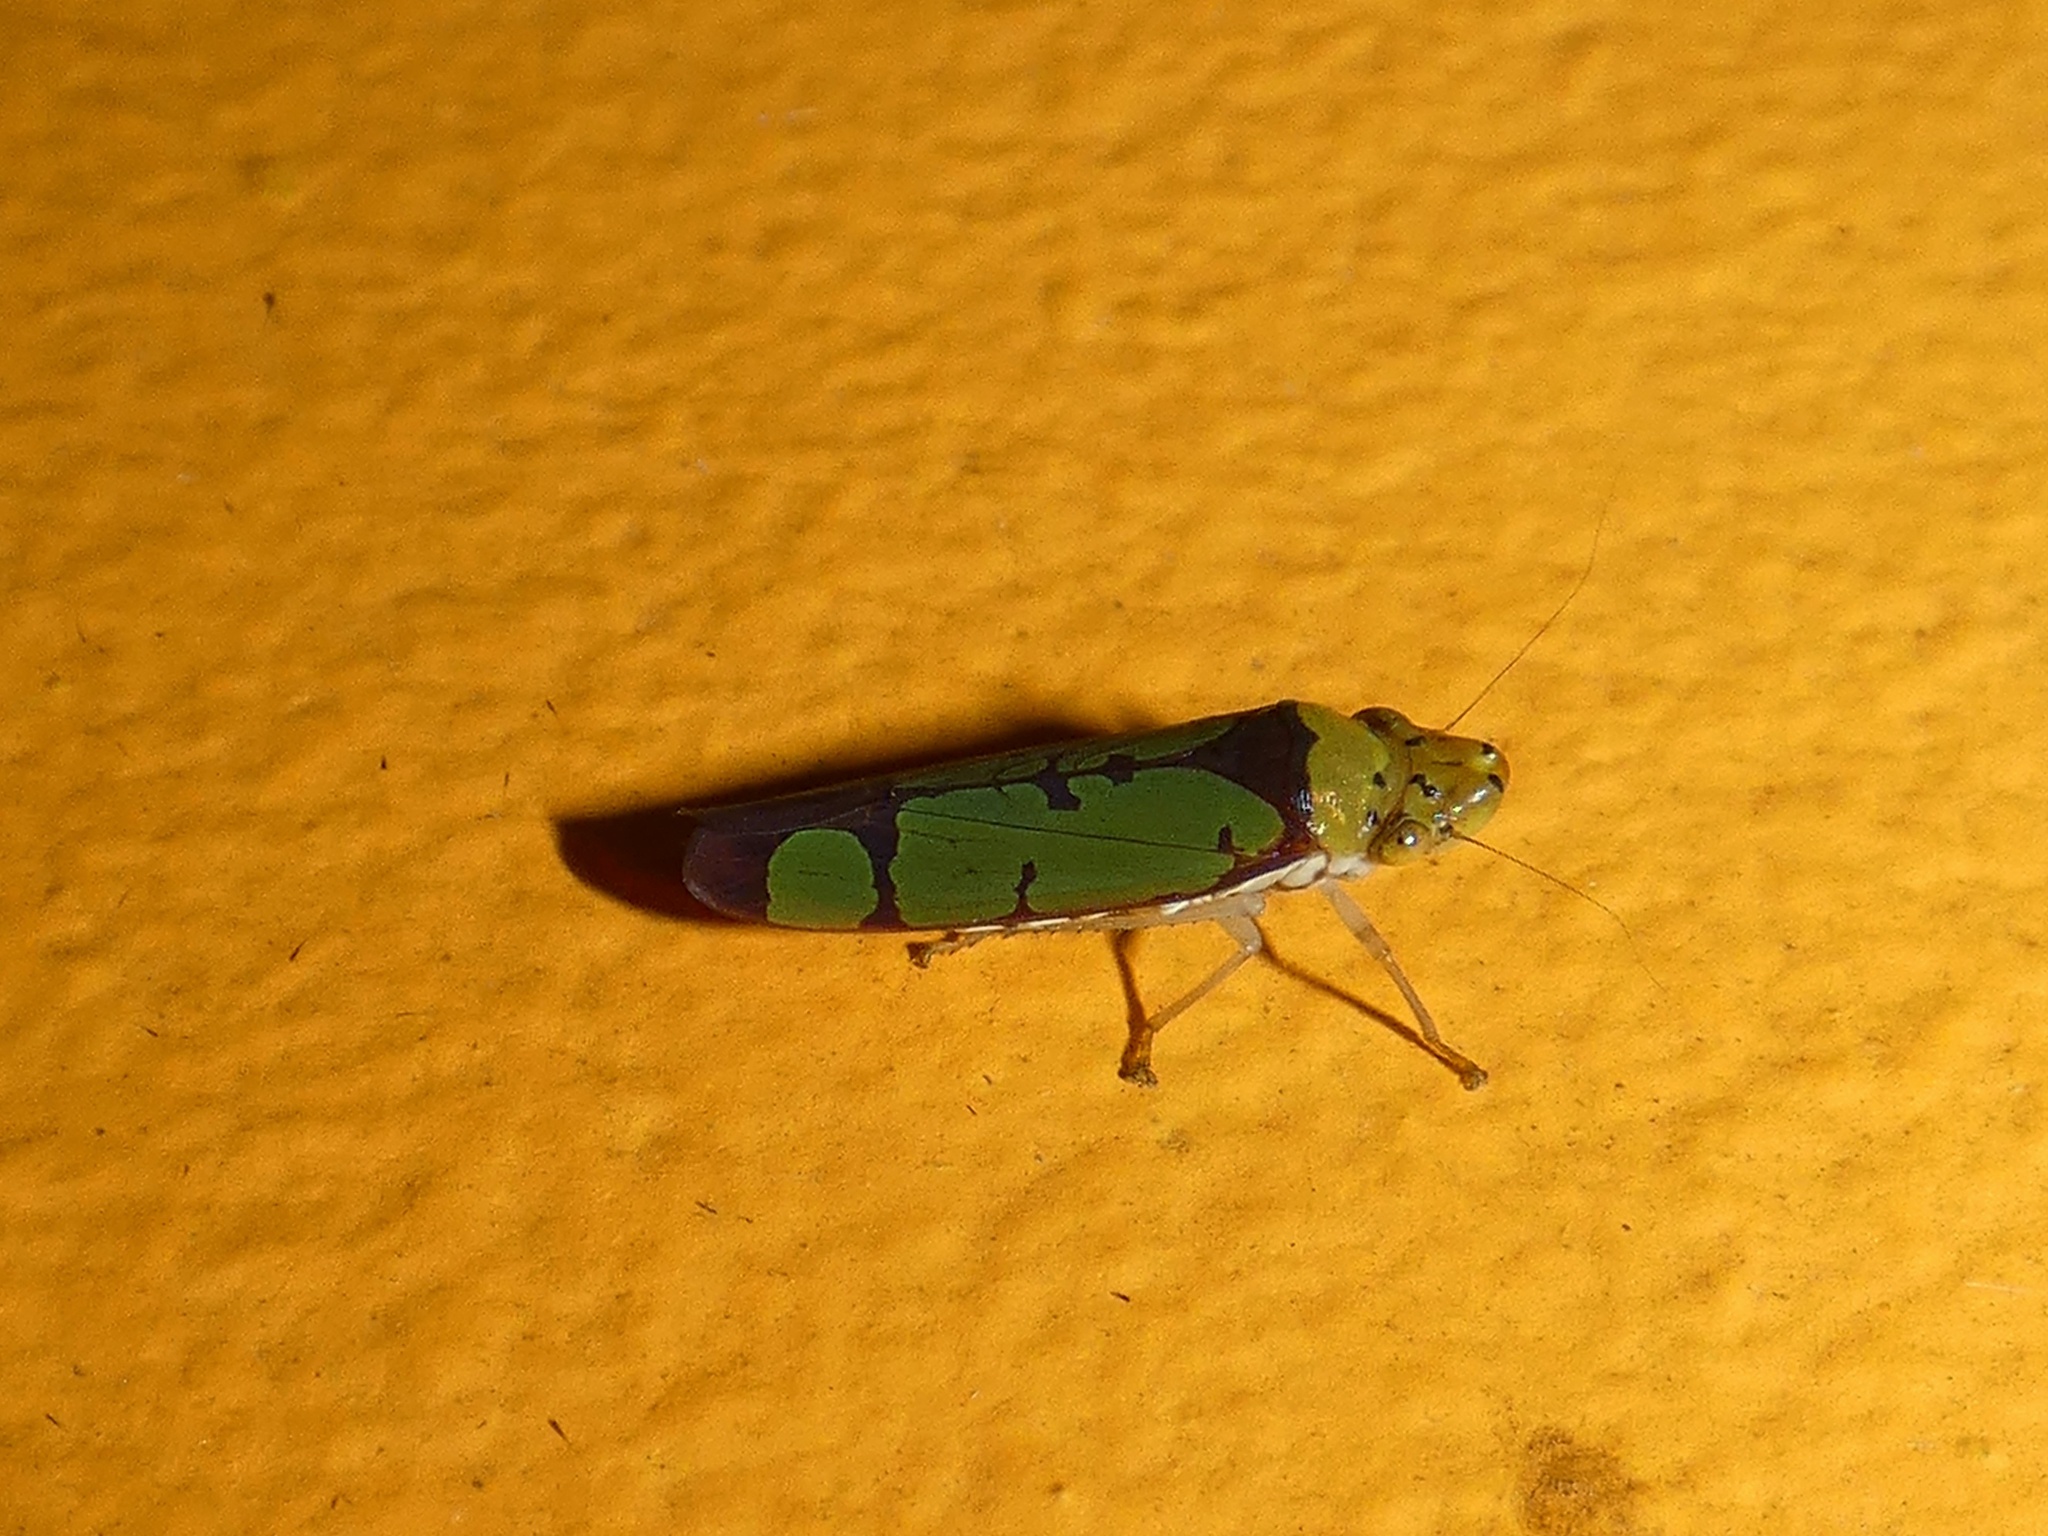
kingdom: Animalia
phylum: Arthropoda
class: Insecta
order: Hemiptera
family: Cicadellidae
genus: Paraulacizes
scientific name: Paraulacizes panamensis
